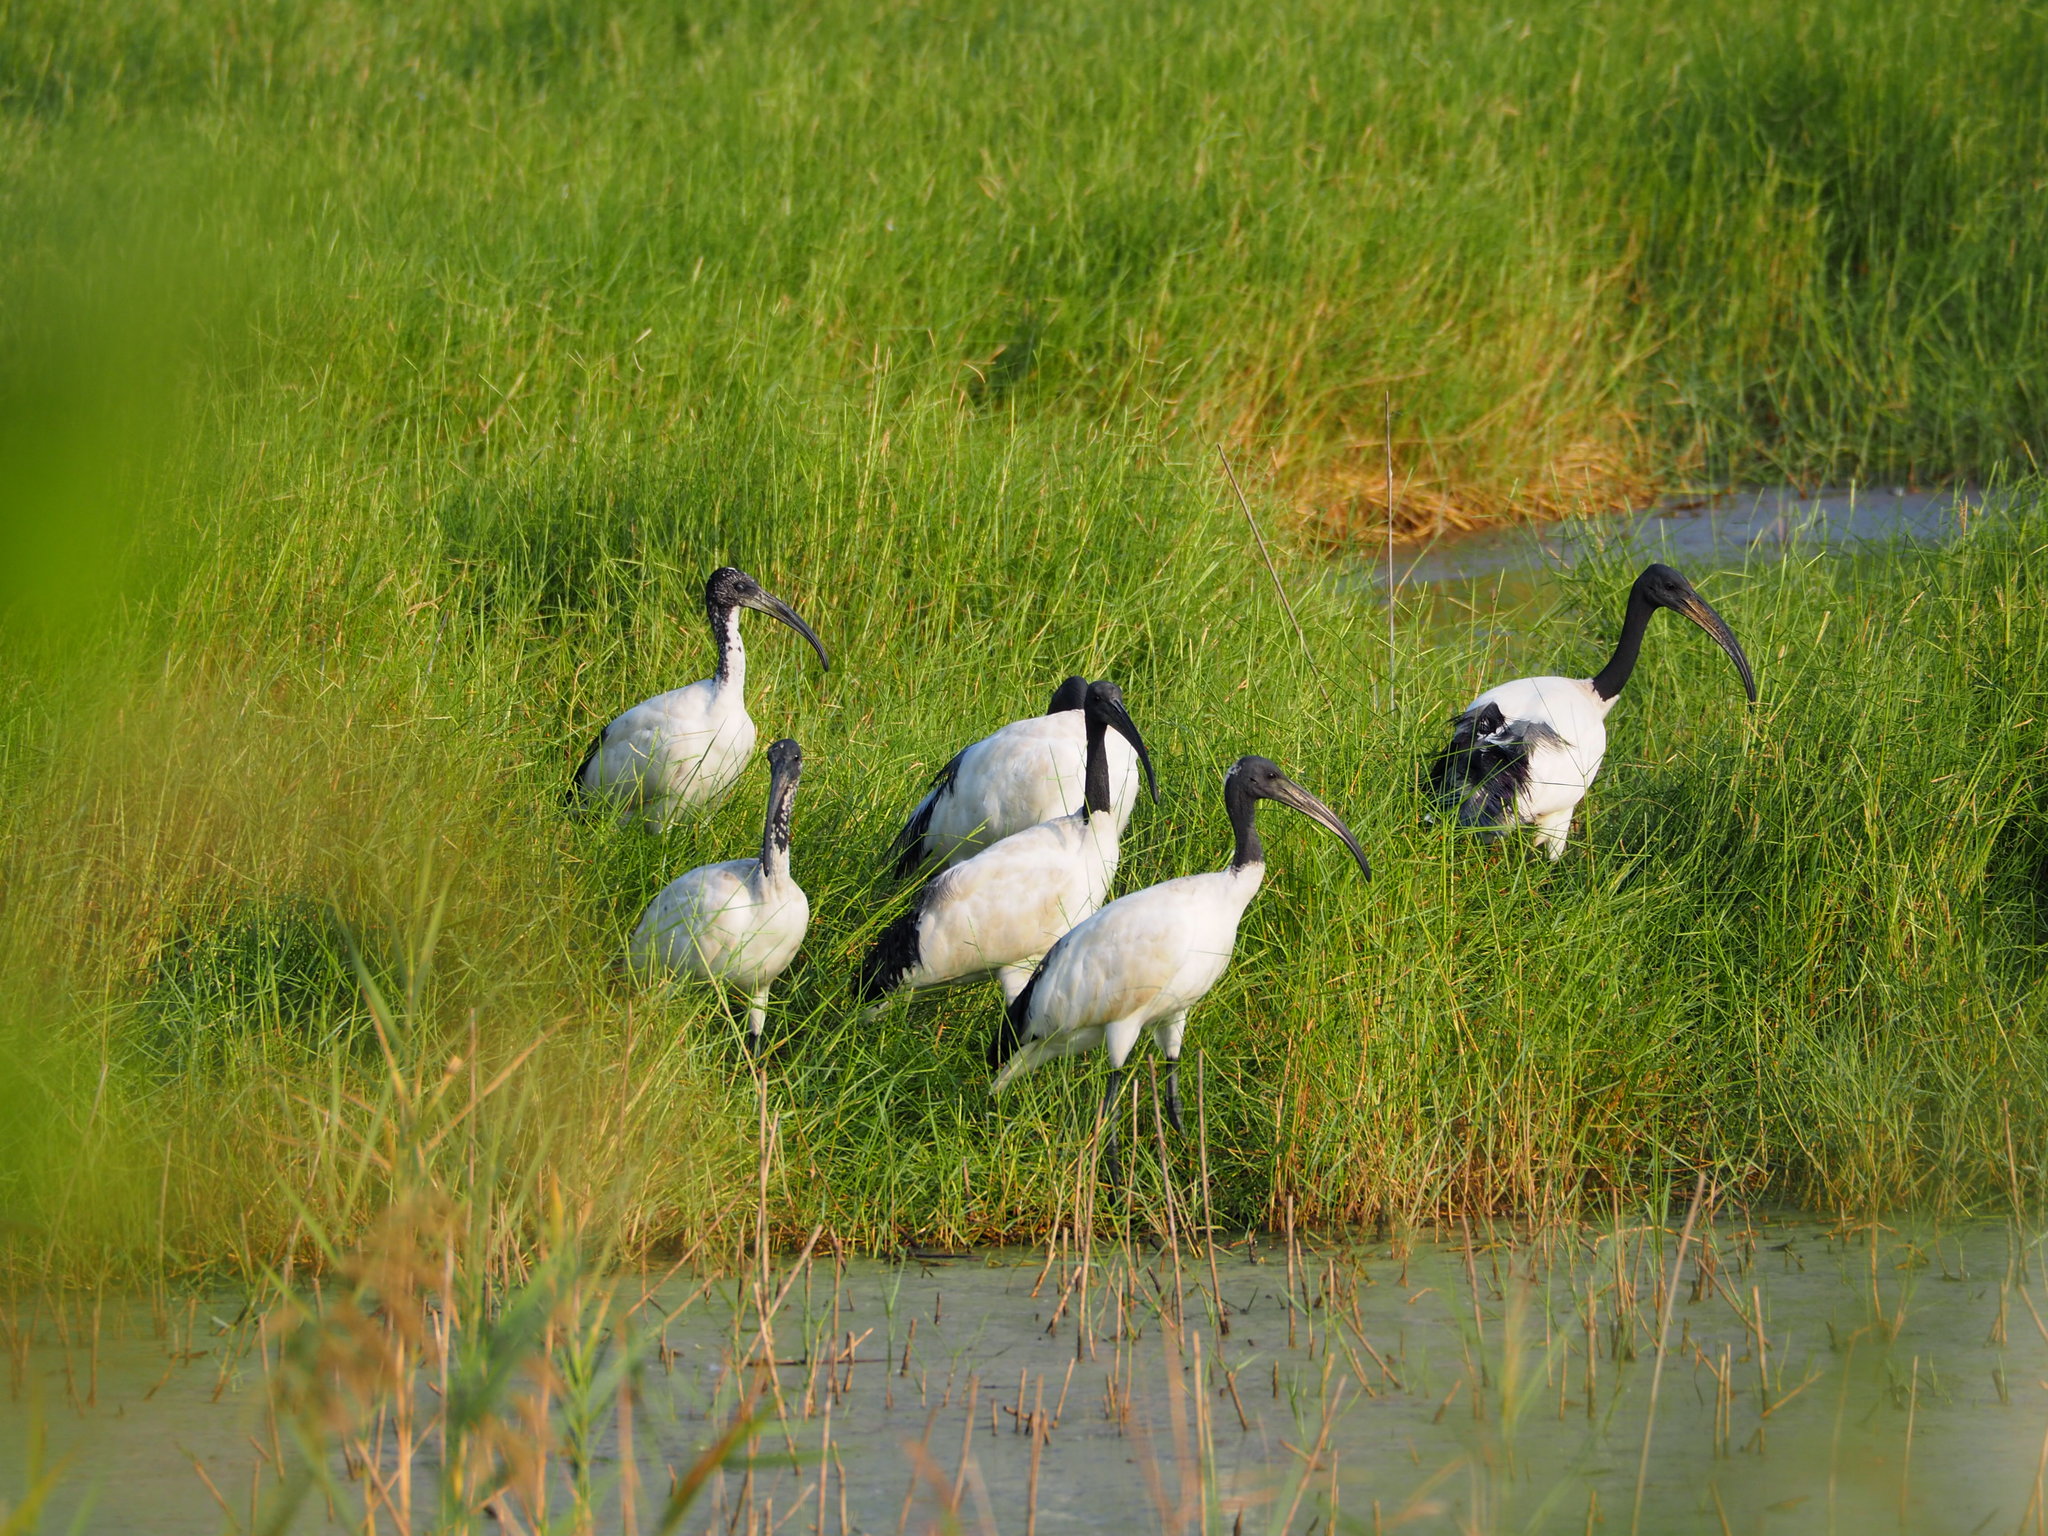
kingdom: Animalia
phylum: Chordata
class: Aves
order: Pelecaniformes
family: Threskiornithidae
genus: Threskiornis
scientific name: Threskiornis aethiopicus
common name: Sacred ibis
